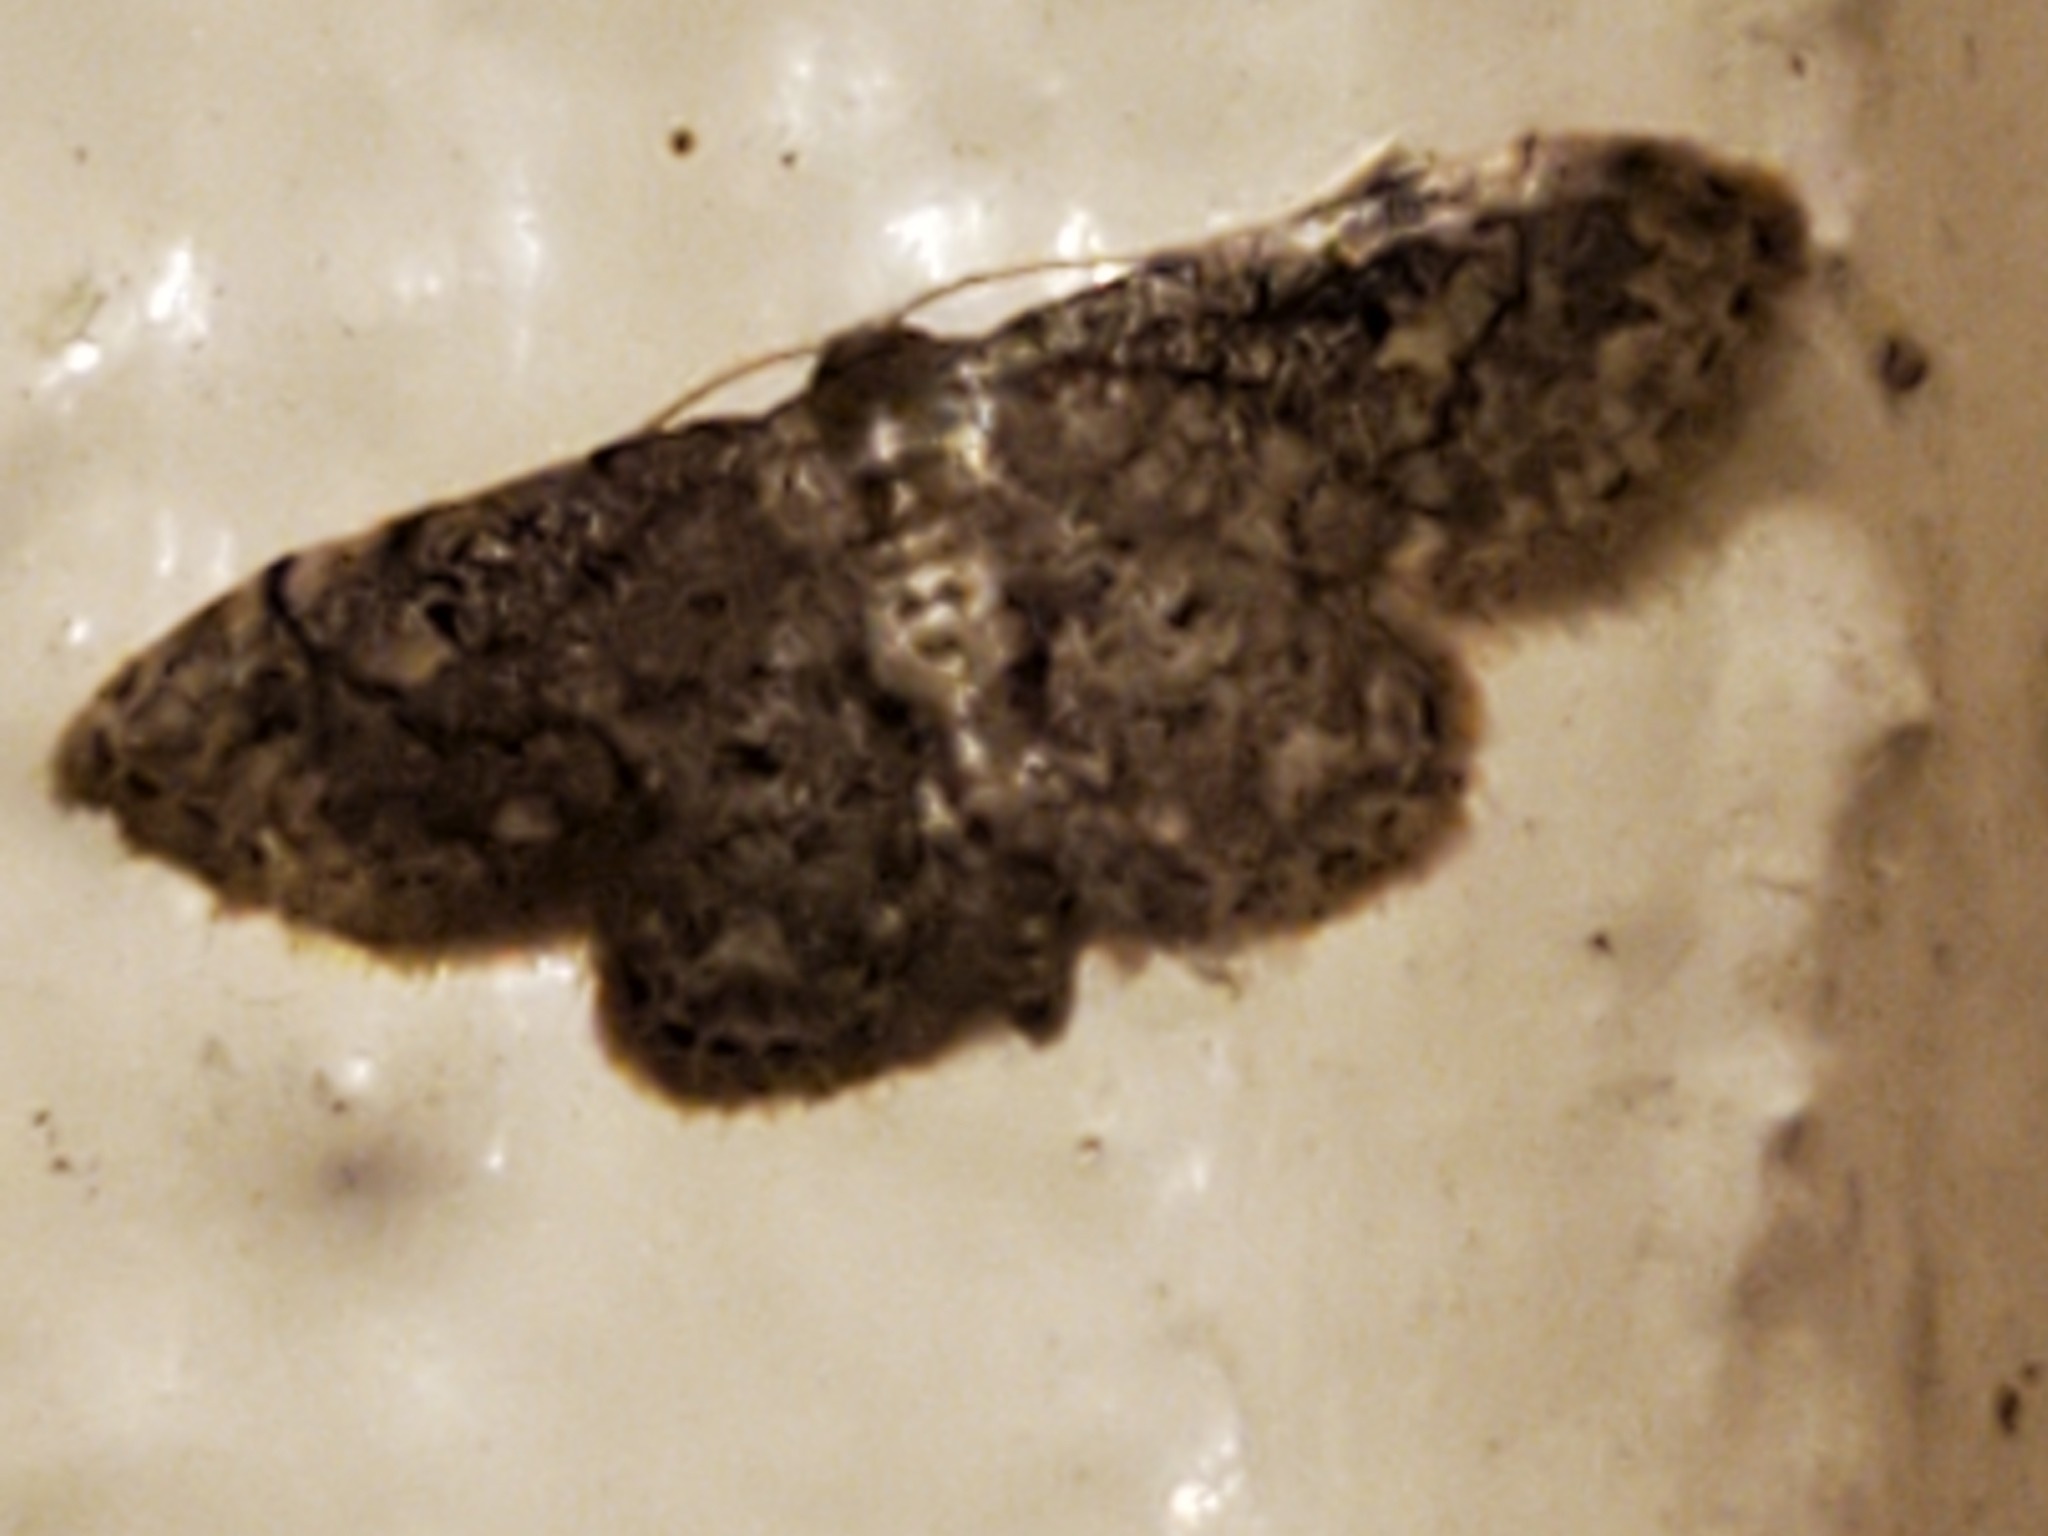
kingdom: Animalia
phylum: Arthropoda
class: Insecta
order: Lepidoptera
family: Geometridae
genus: Glenoides
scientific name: Glenoides texanaria
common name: Texas gray
